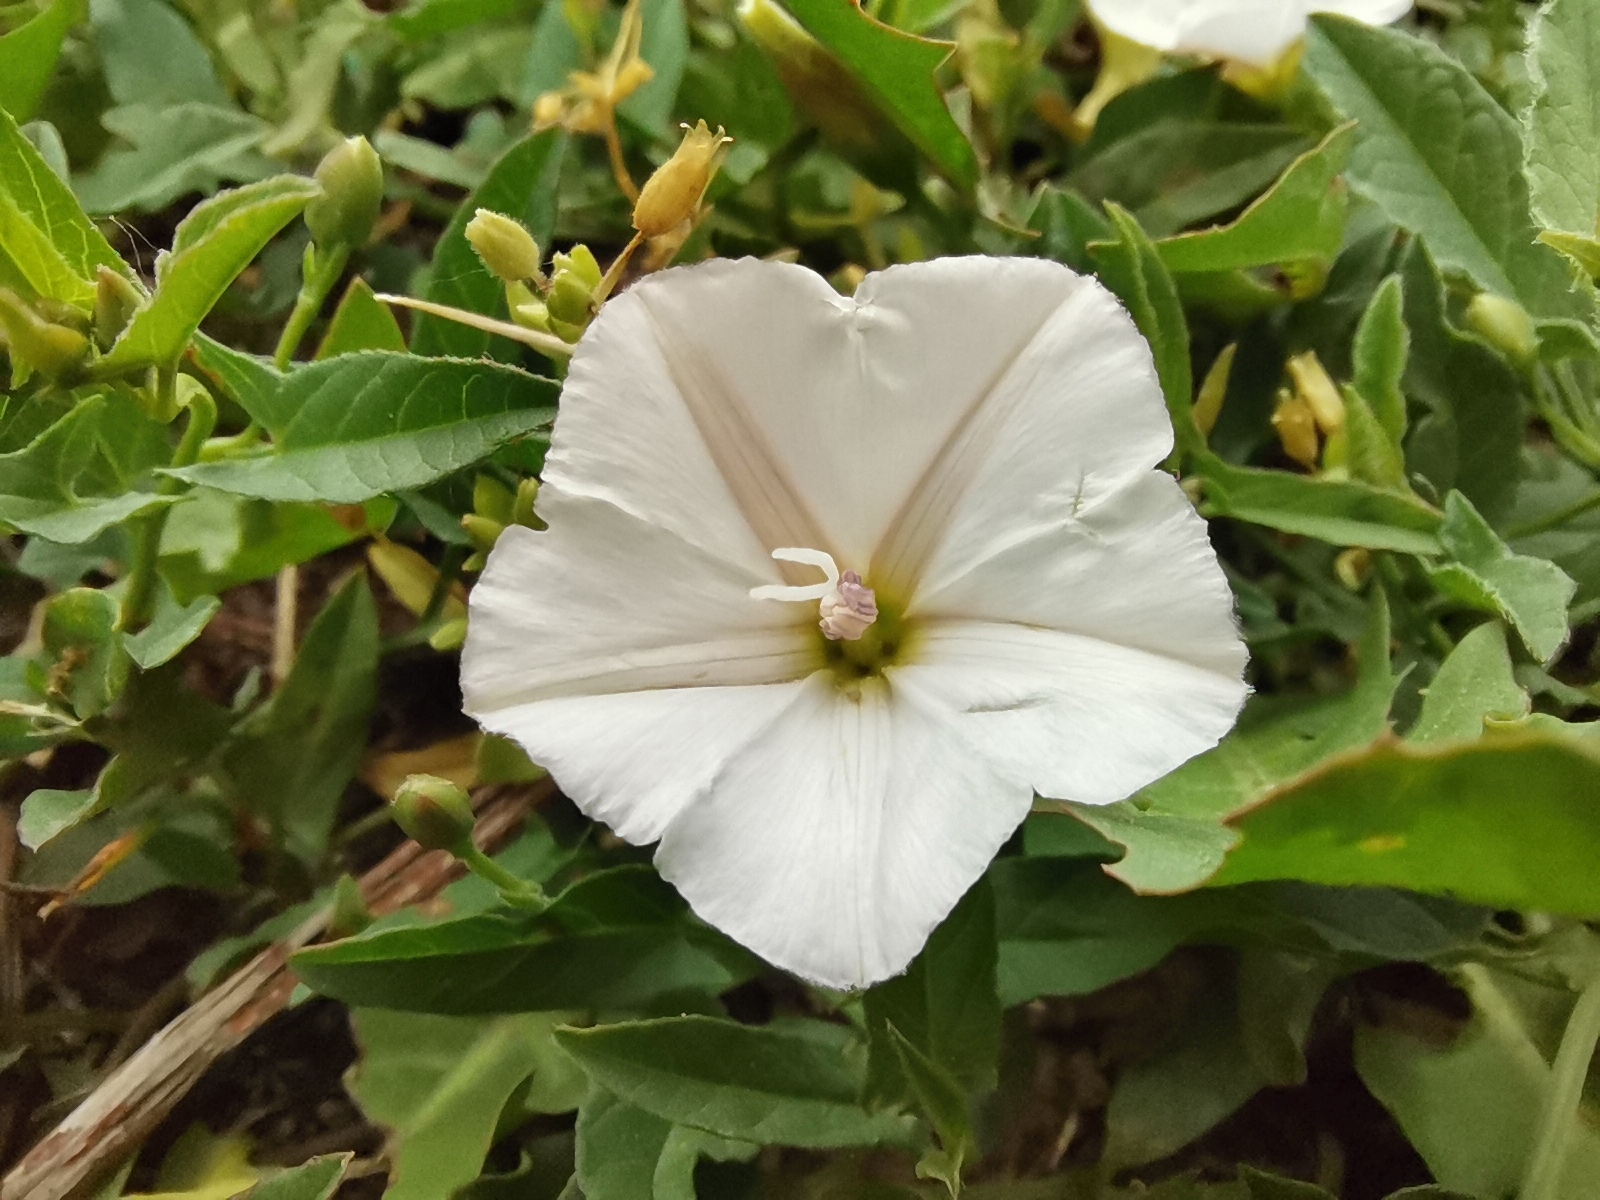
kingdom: Plantae
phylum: Tracheophyta
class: Magnoliopsida
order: Solanales
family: Convolvulaceae
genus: Convolvulus
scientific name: Convolvulus arvensis
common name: Field bindweed
